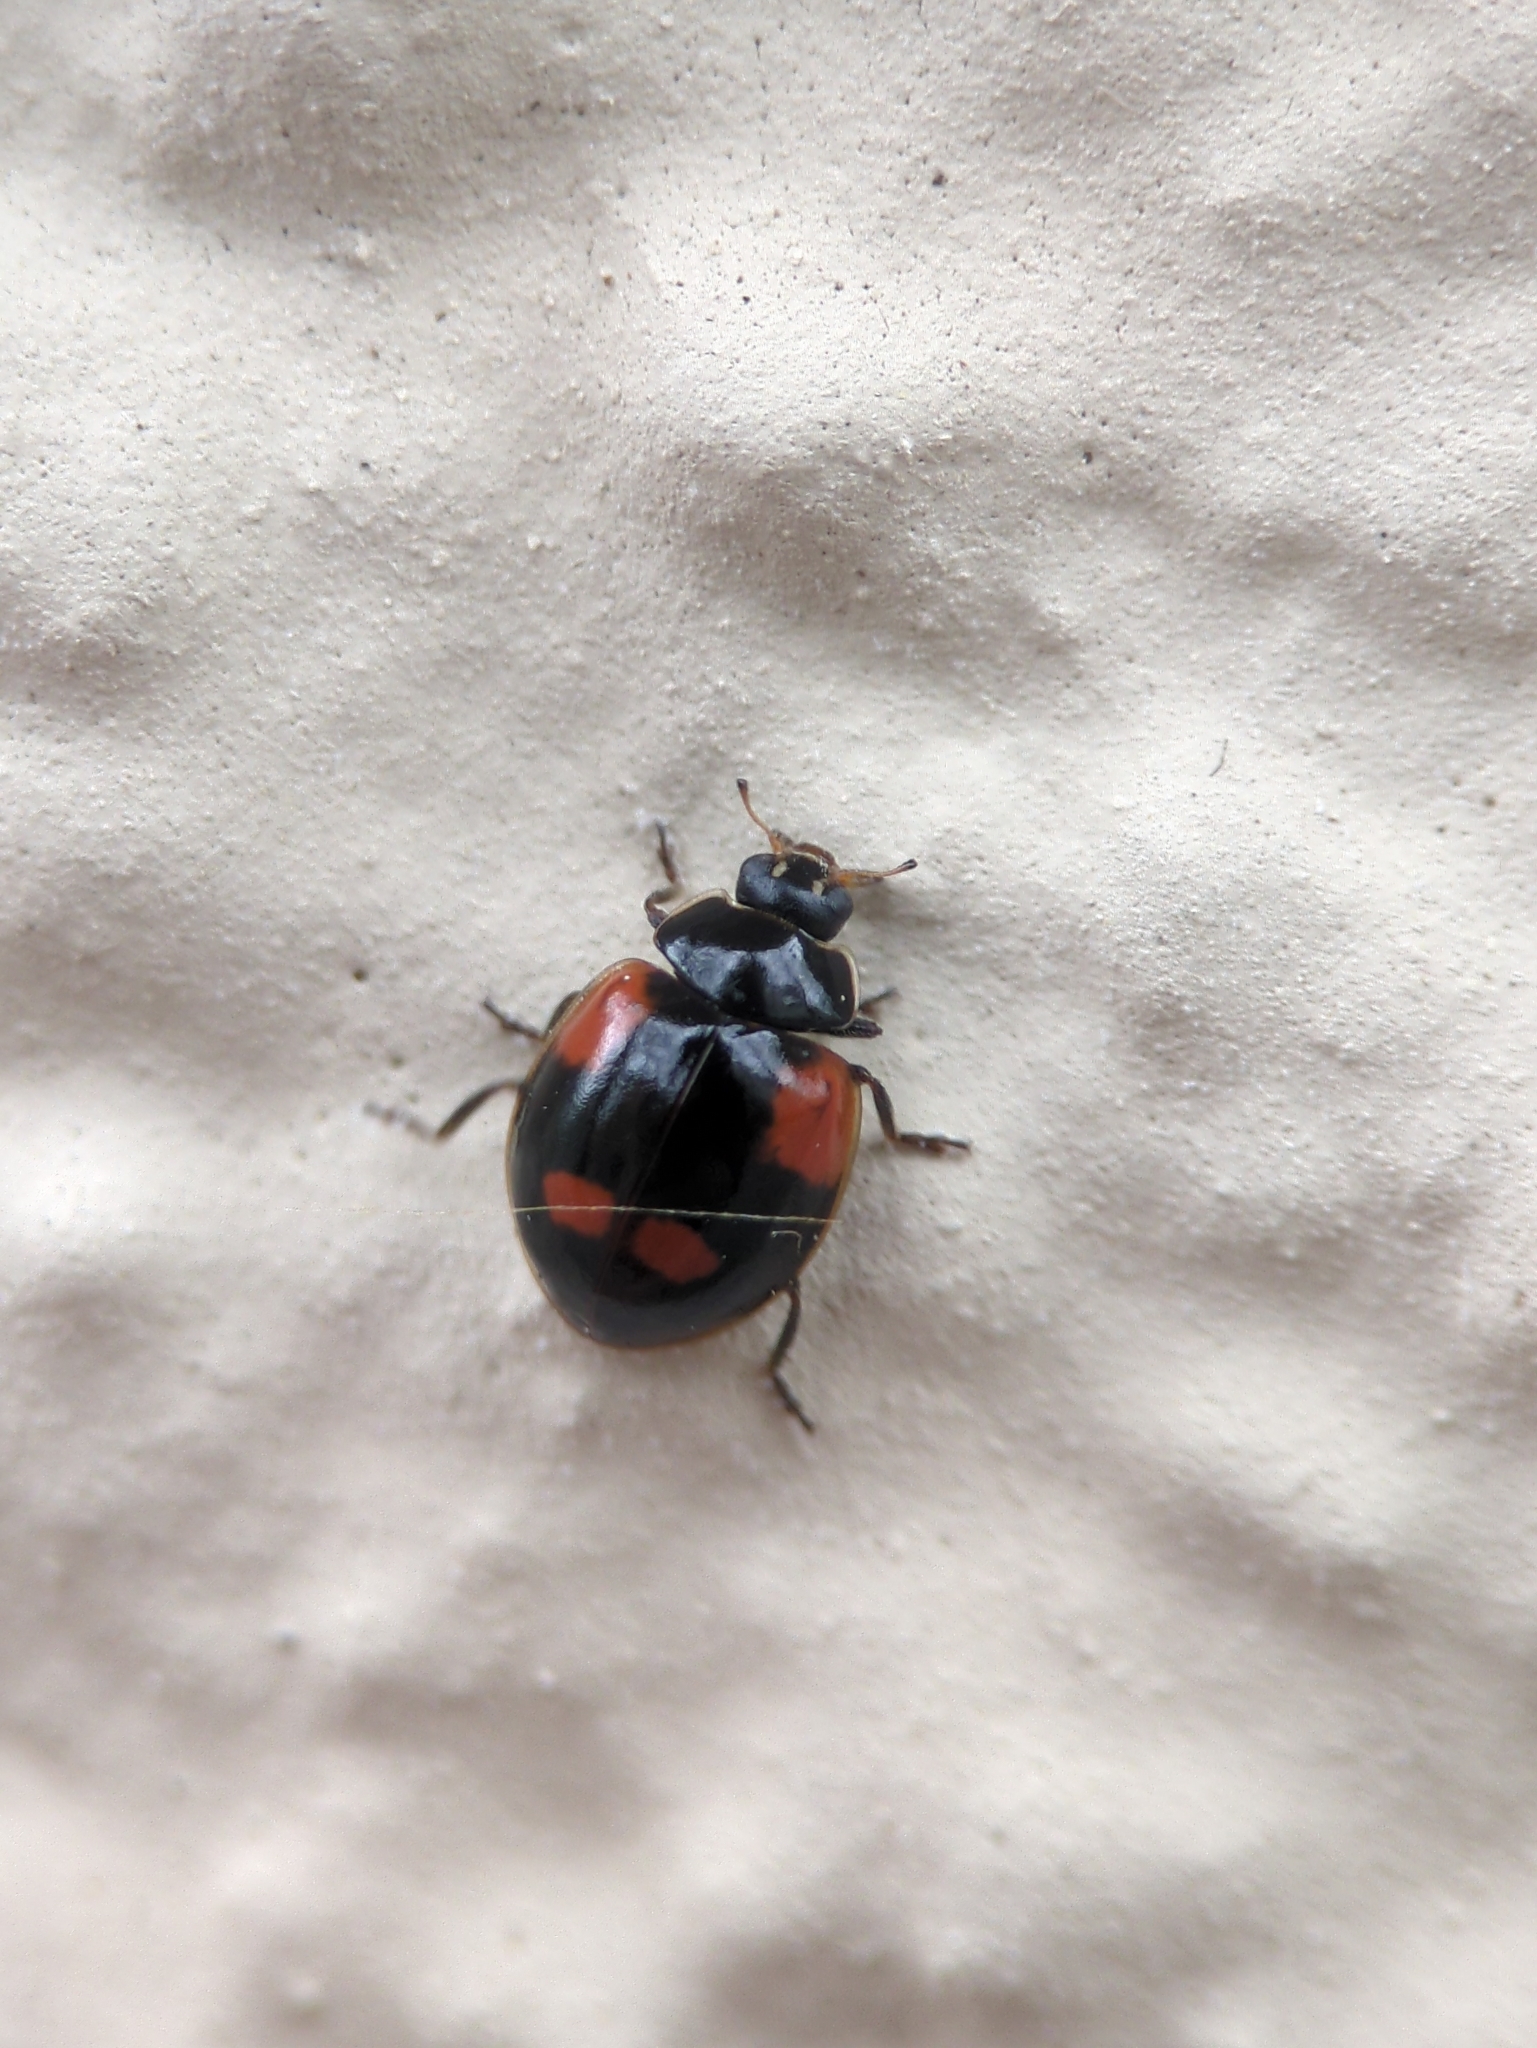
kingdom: Animalia
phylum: Arthropoda
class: Insecta
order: Coleoptera
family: Coccinellidae
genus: Adalia
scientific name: Adalia bipunctata
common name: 2-spot ladybird
